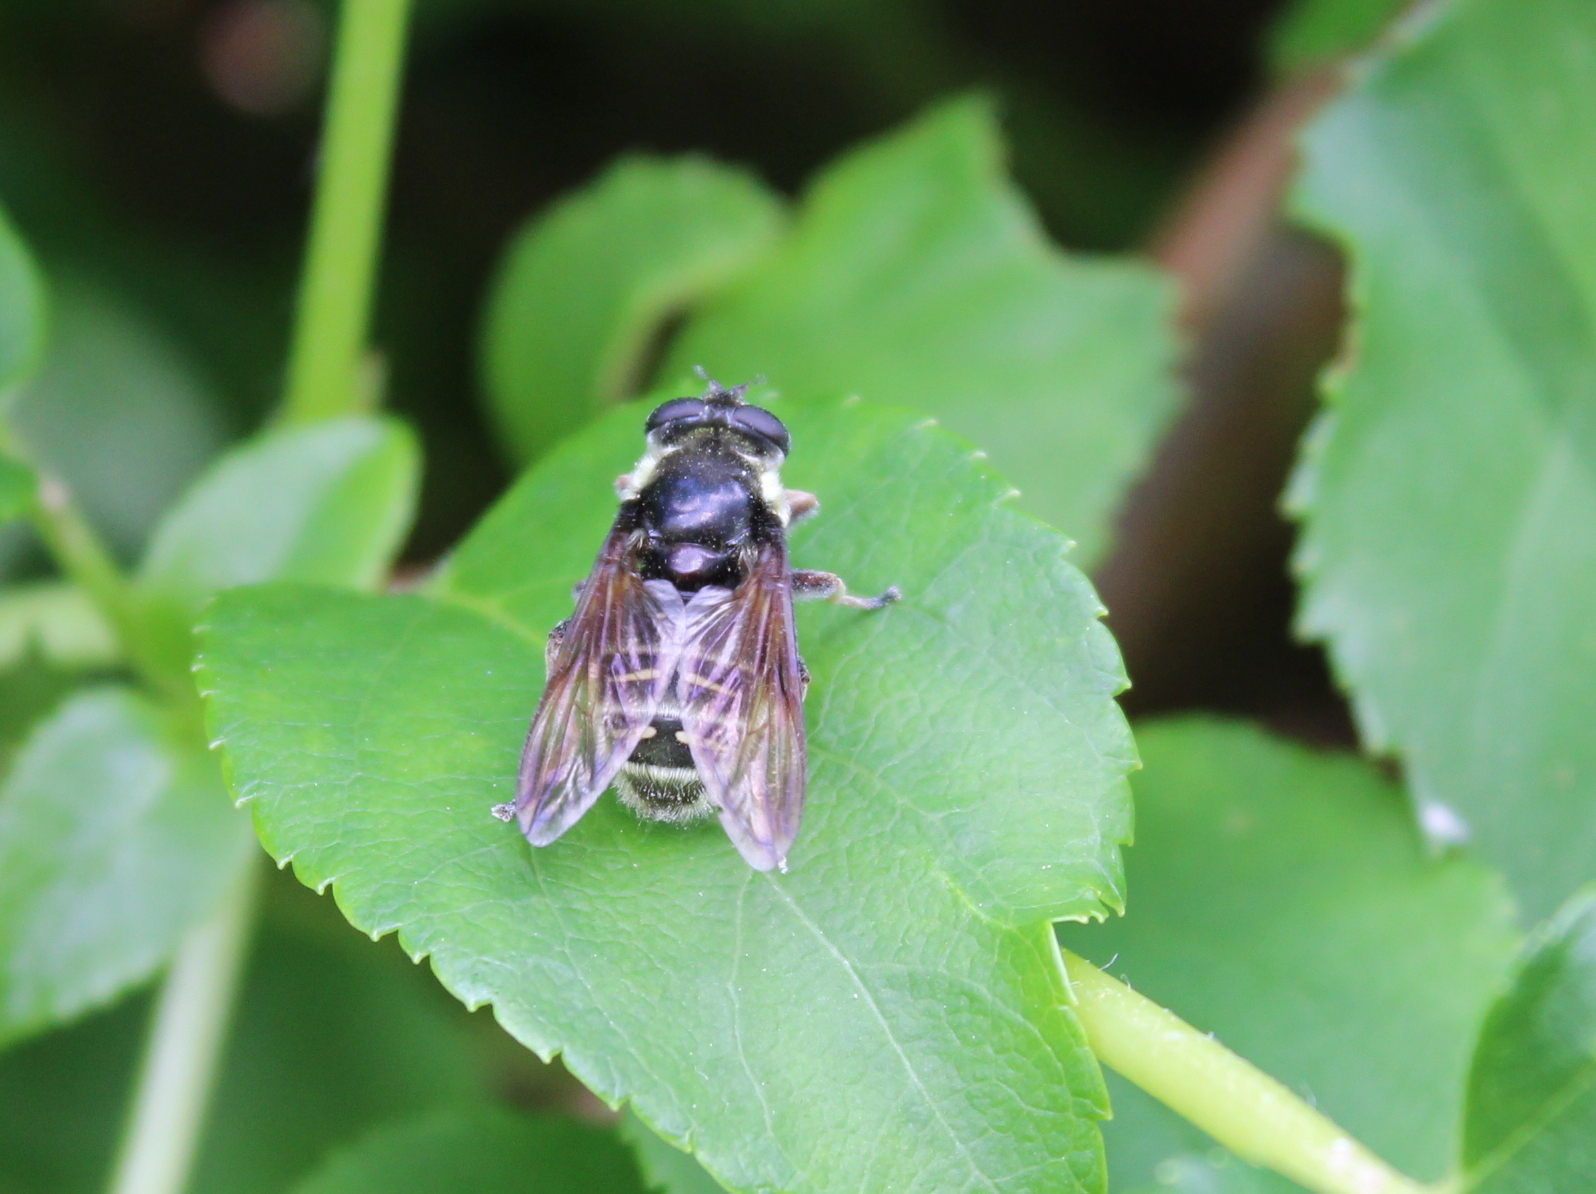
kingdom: Animalia
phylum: Arthropoda
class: Insecta
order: Diptera
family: Syrphidae
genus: Sericomyia
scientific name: Sericomyia militaris
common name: Narrow-banded pond fly
